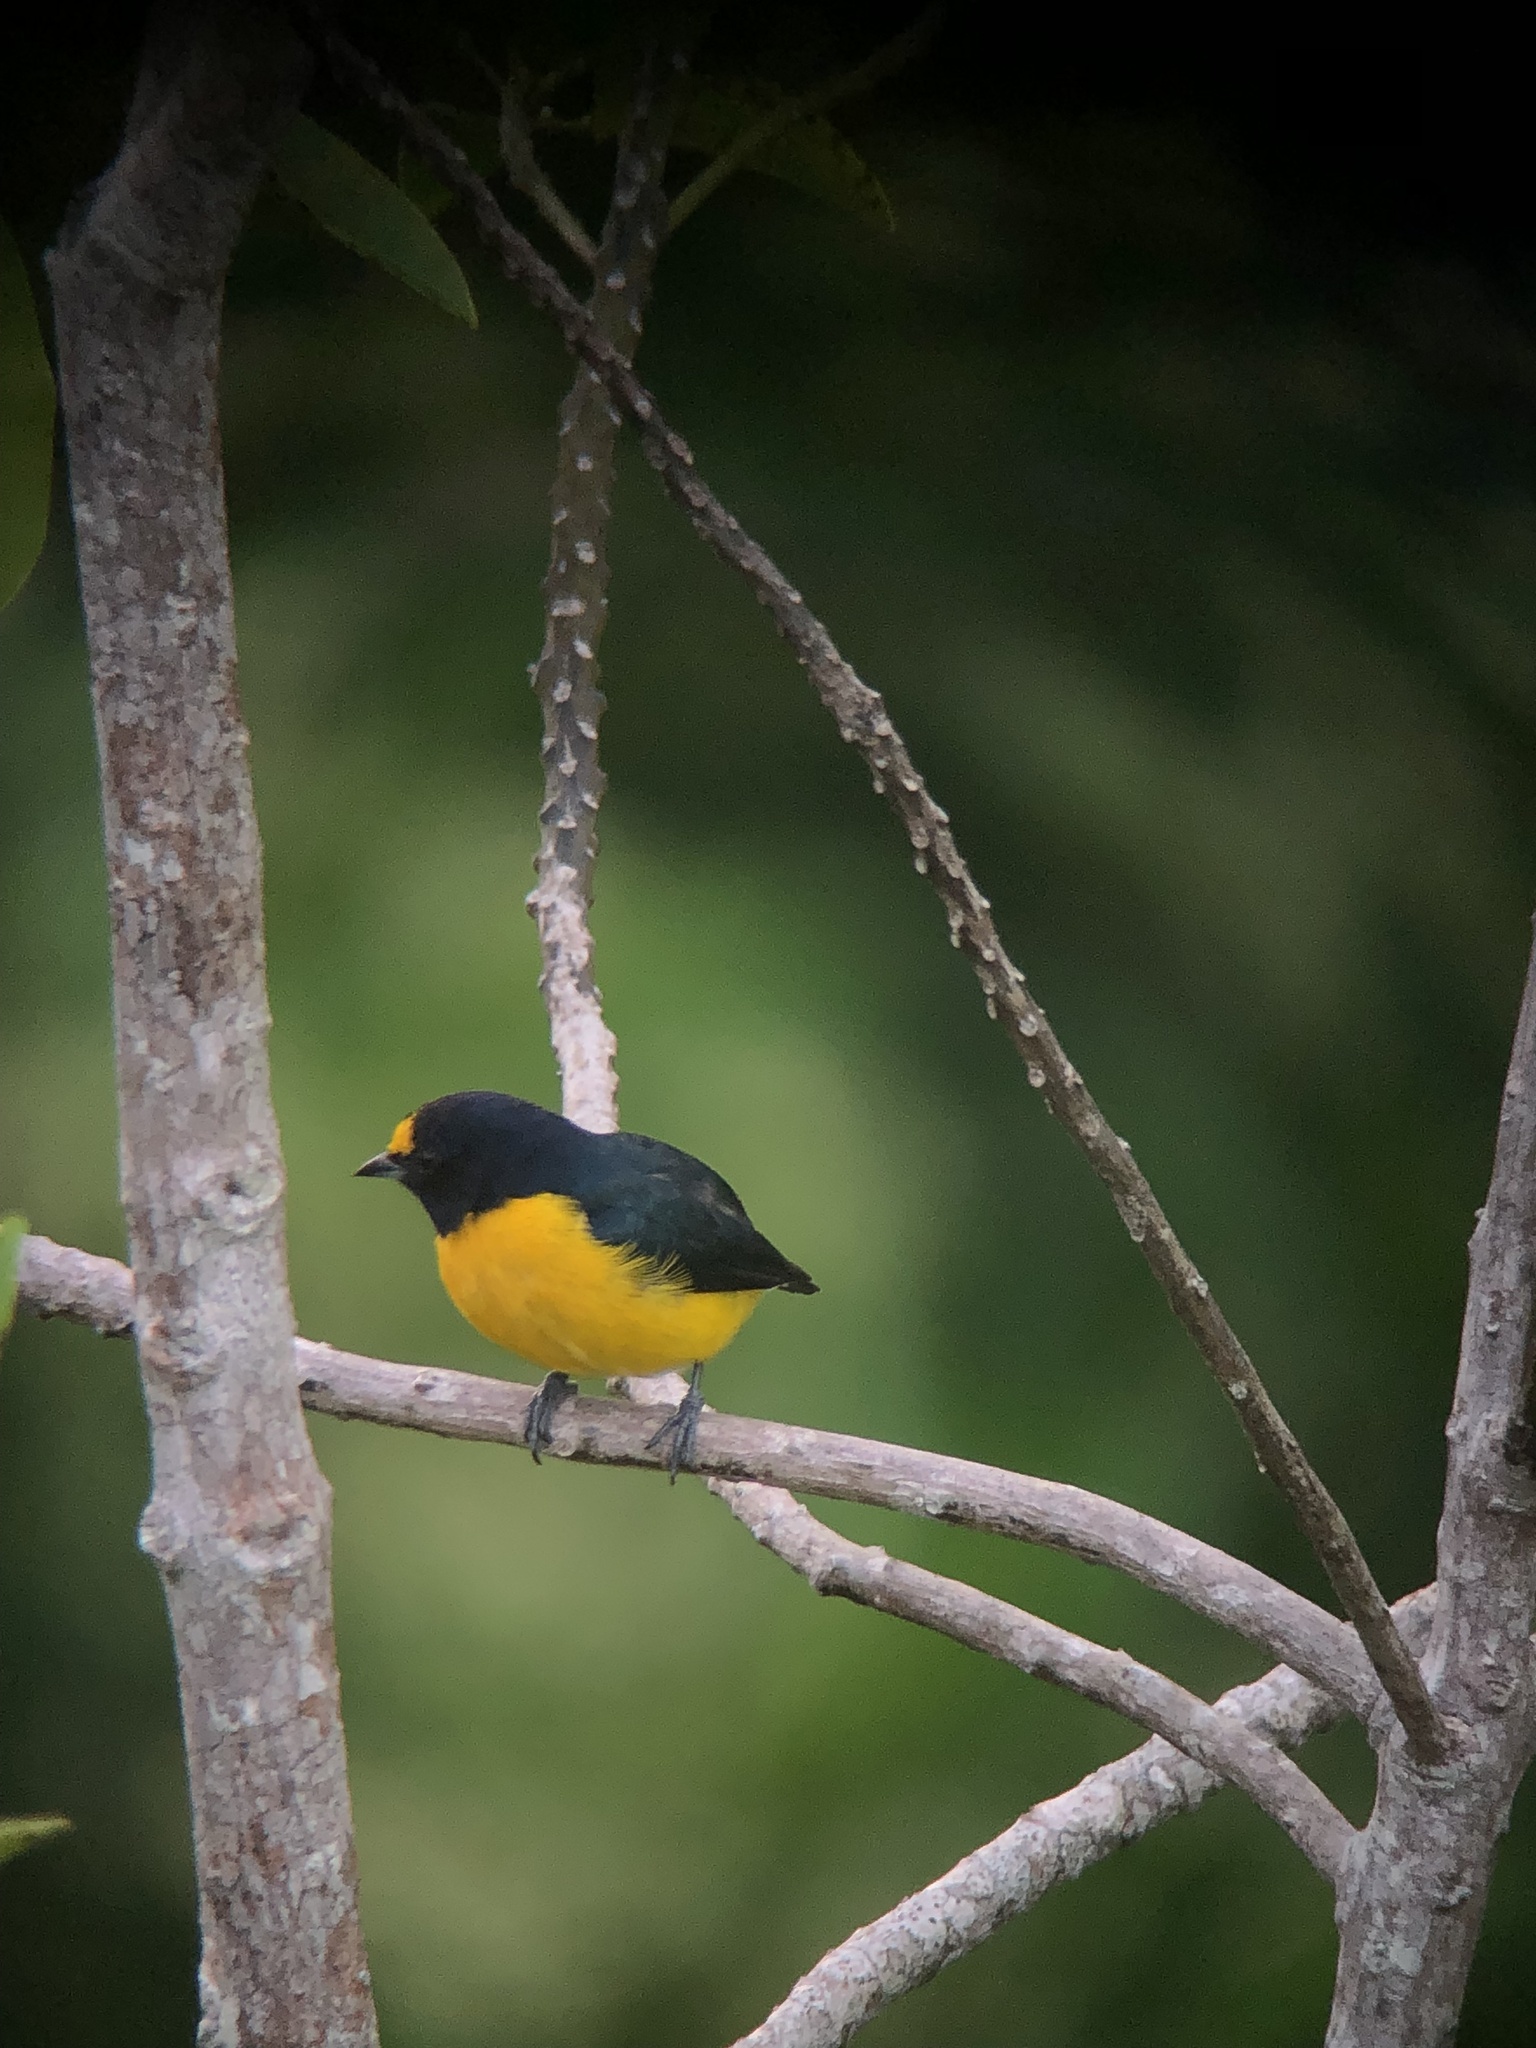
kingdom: Animalia
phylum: Chordata
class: Aves
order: Passeriformes
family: Fringillidae
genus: Euphonia
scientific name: Euphonia minuta
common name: White-vented euphonia
